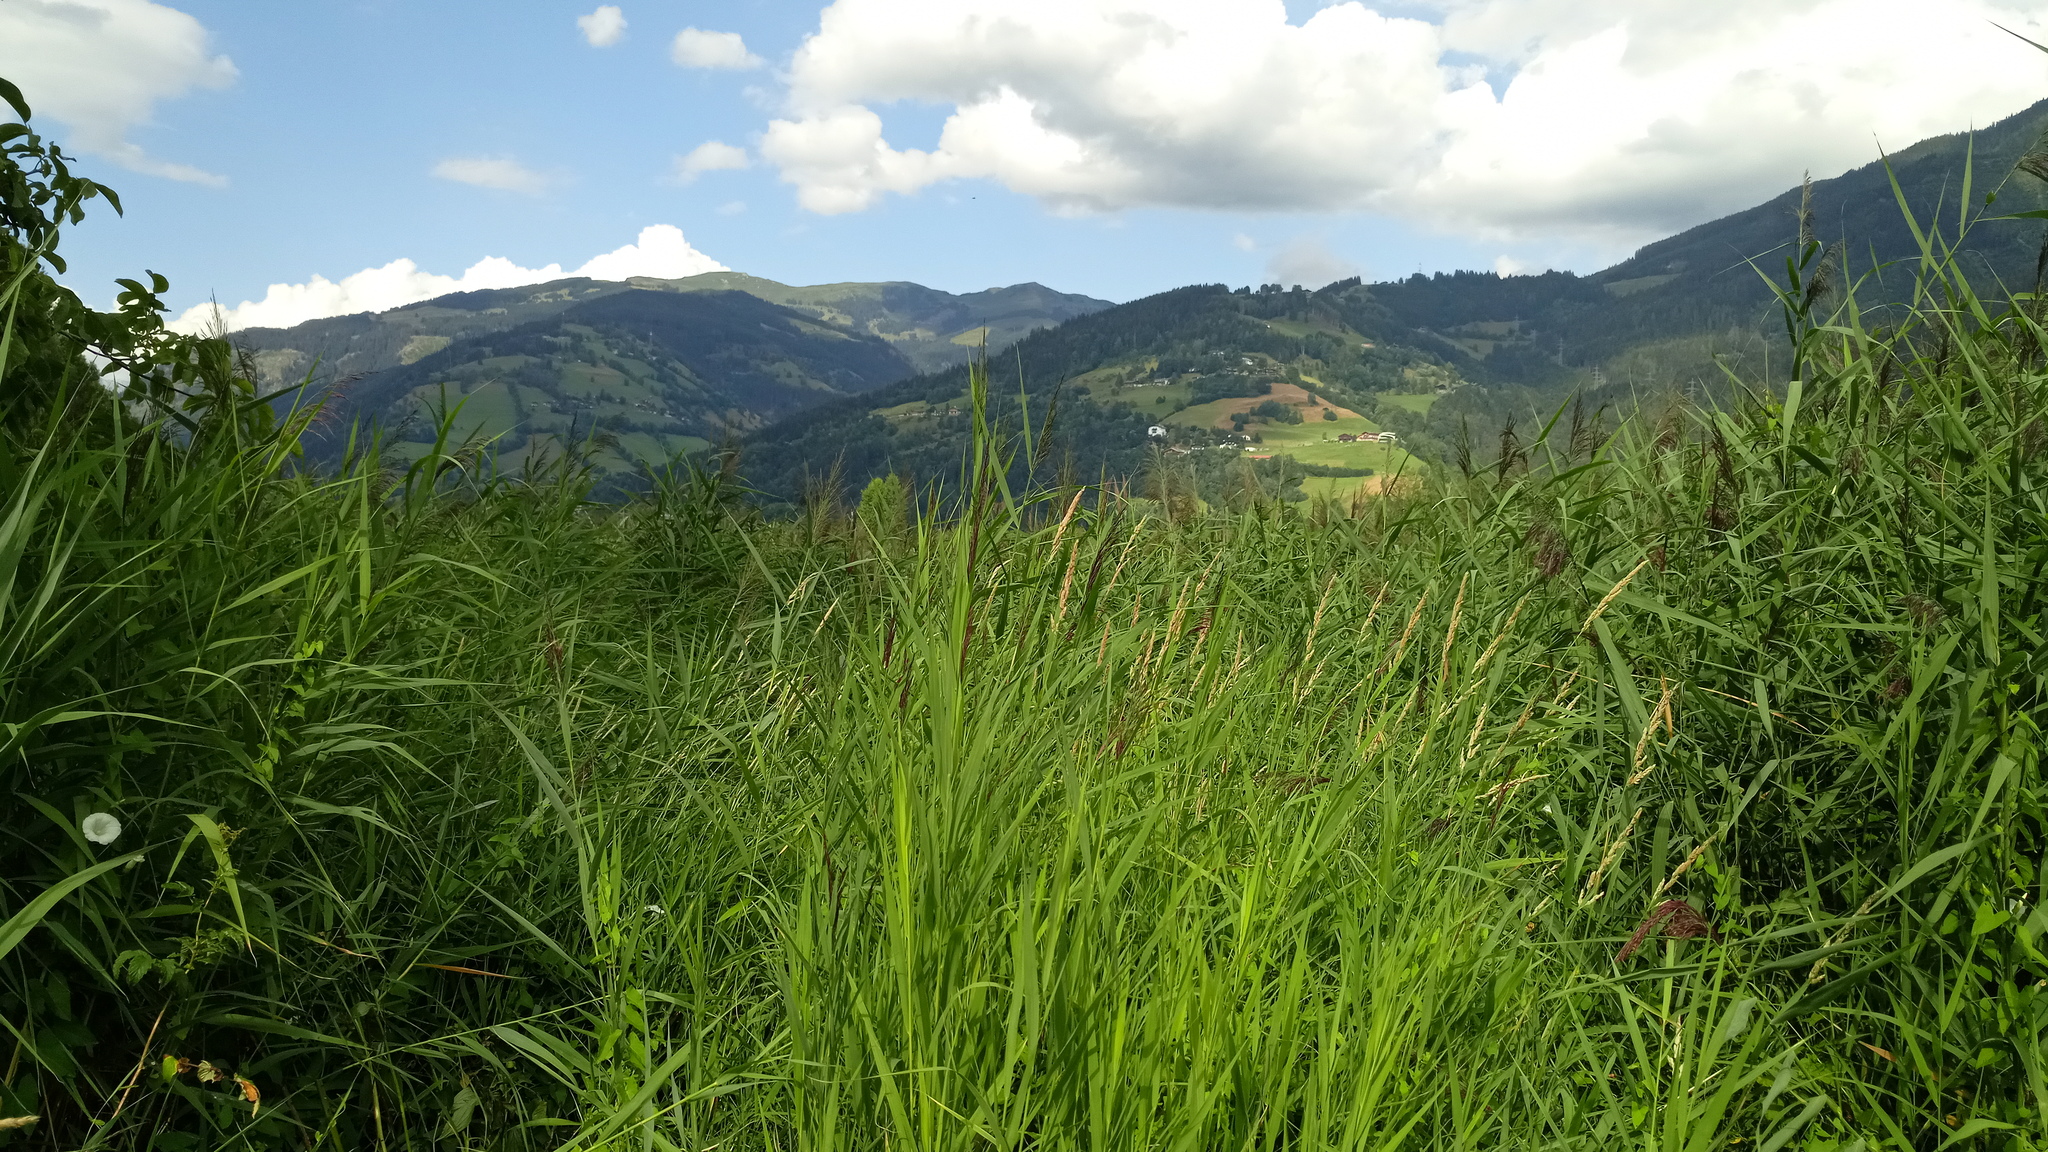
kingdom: Plantae
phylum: Tracheophyta
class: Liliopsida
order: Poales
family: Poaceae
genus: Phragmites
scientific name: Phragmites australis
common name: Common reed
